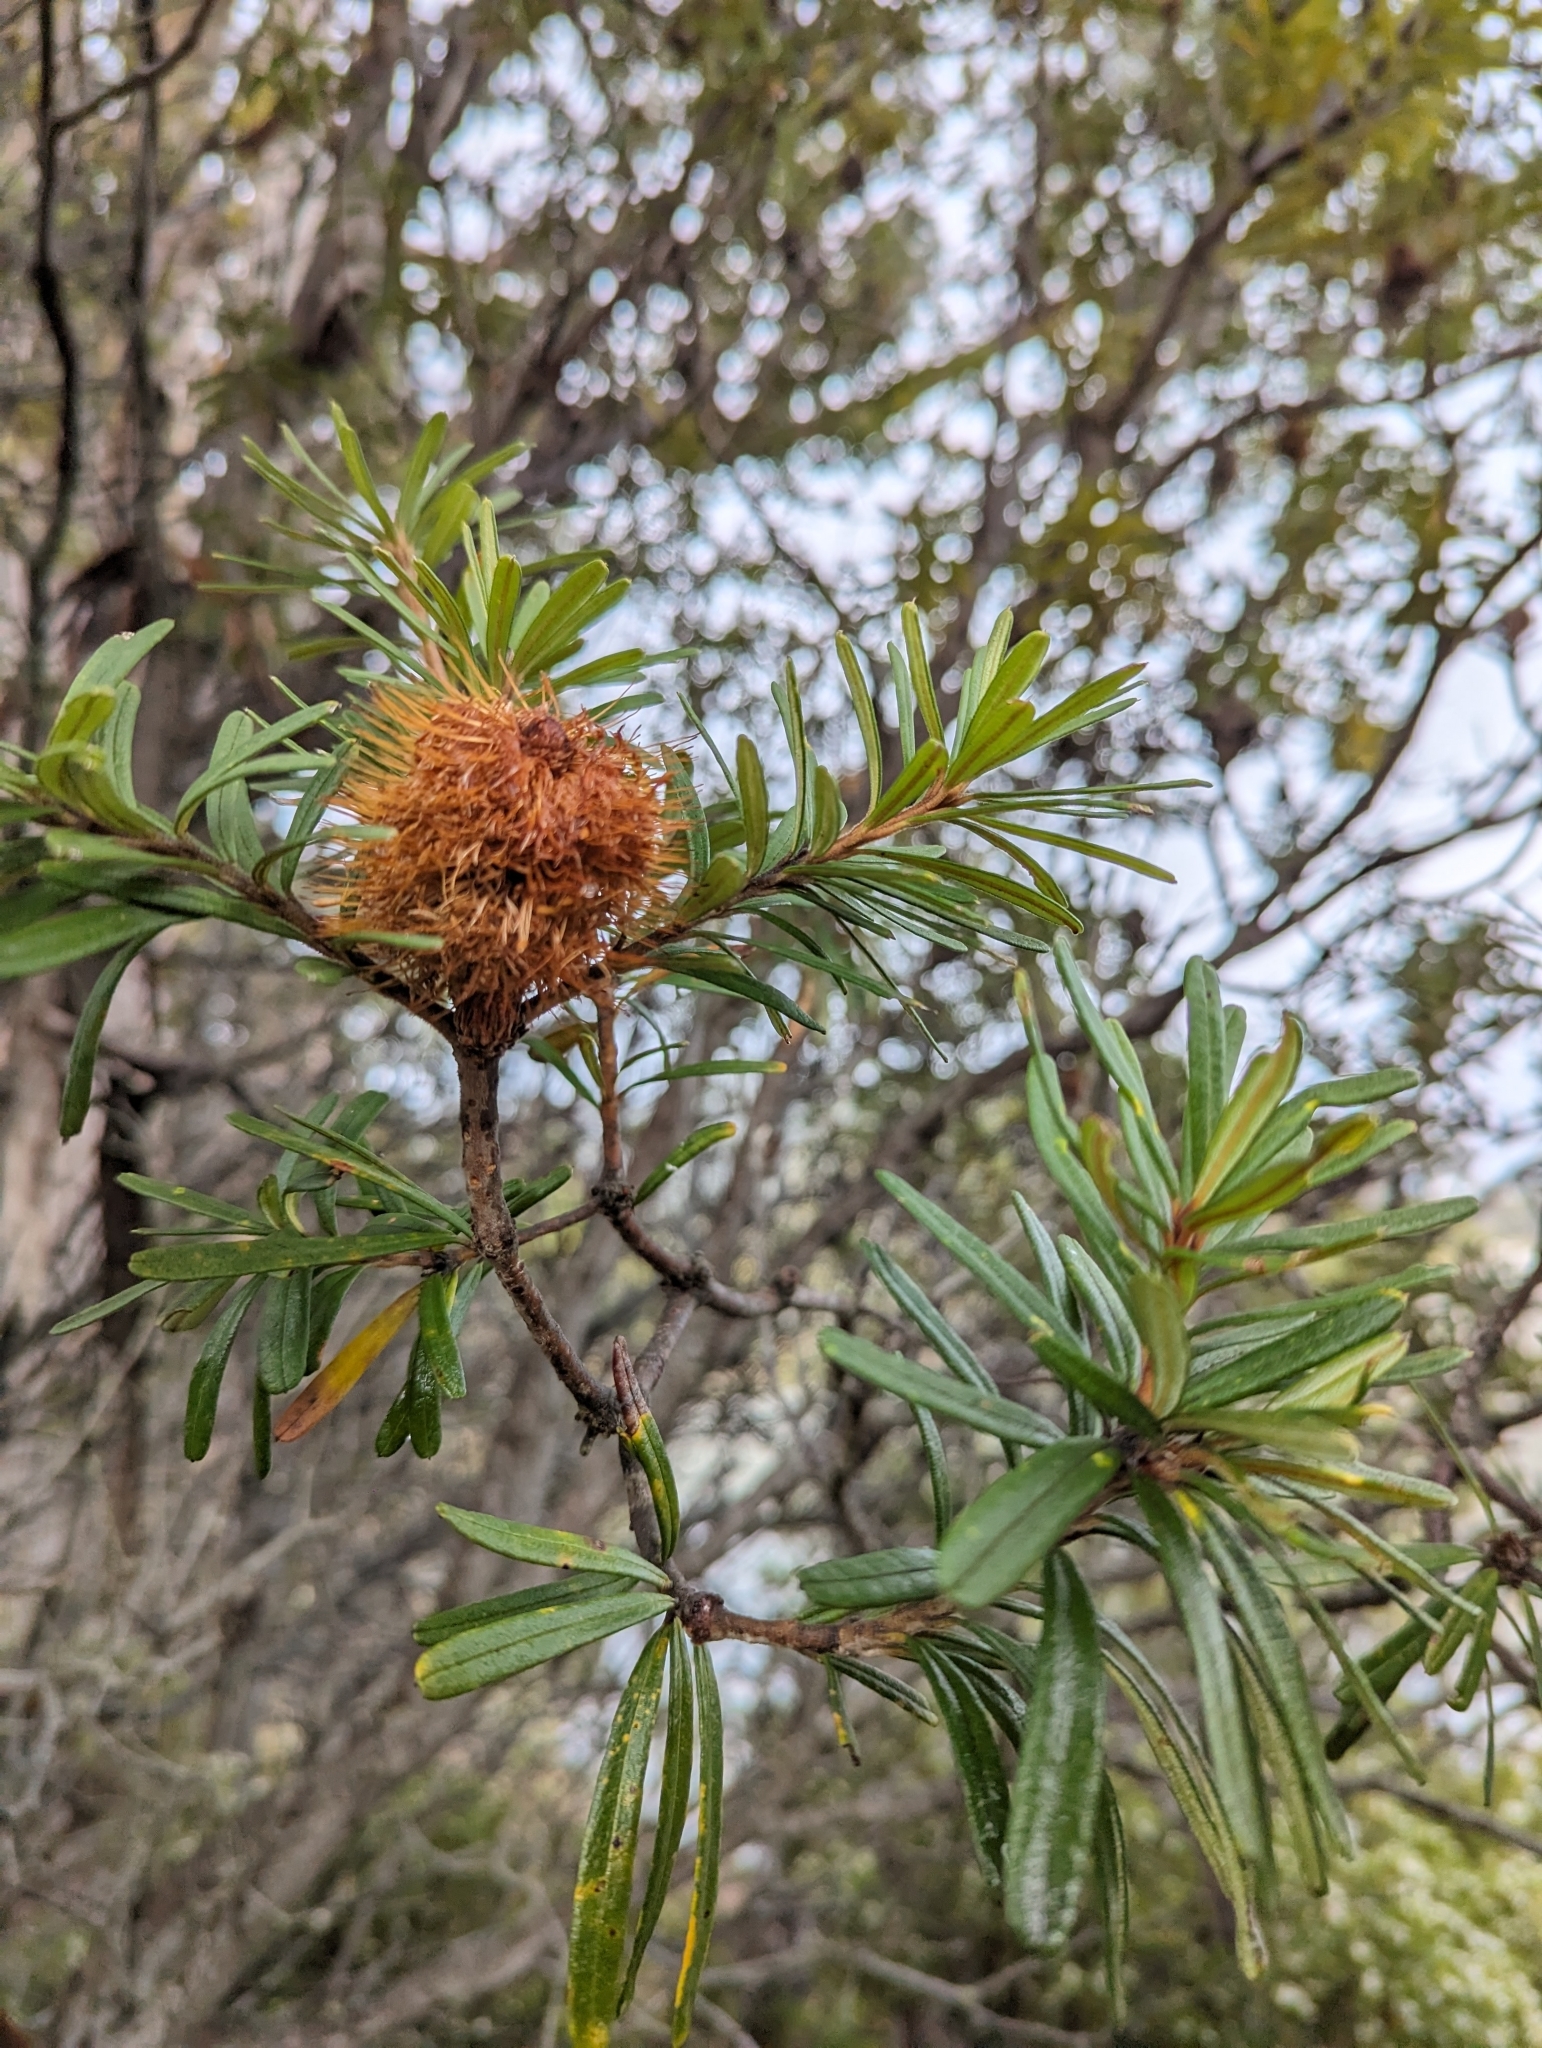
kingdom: Plantae
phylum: Tracheophyta
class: Magnoliopsida
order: Proteales
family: Proteaceae
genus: Banksia
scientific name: Banksia marginata
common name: Silver banksia
